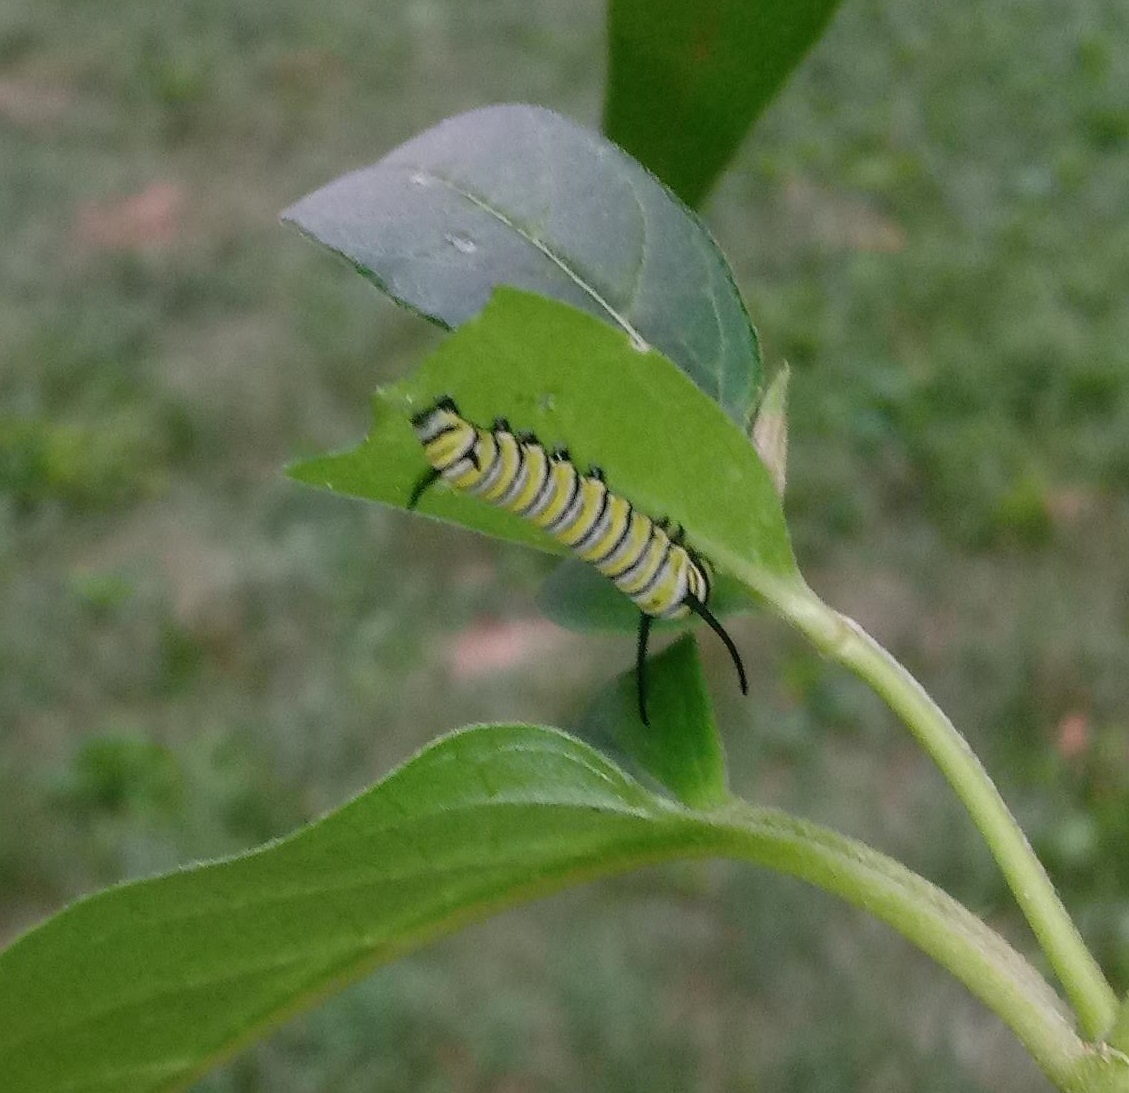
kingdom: Animalia
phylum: Arthropoda
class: Insecta
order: Lepidoptera
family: Nymphalidae
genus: Danaus
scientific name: Danaus plexippus
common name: Monarch
